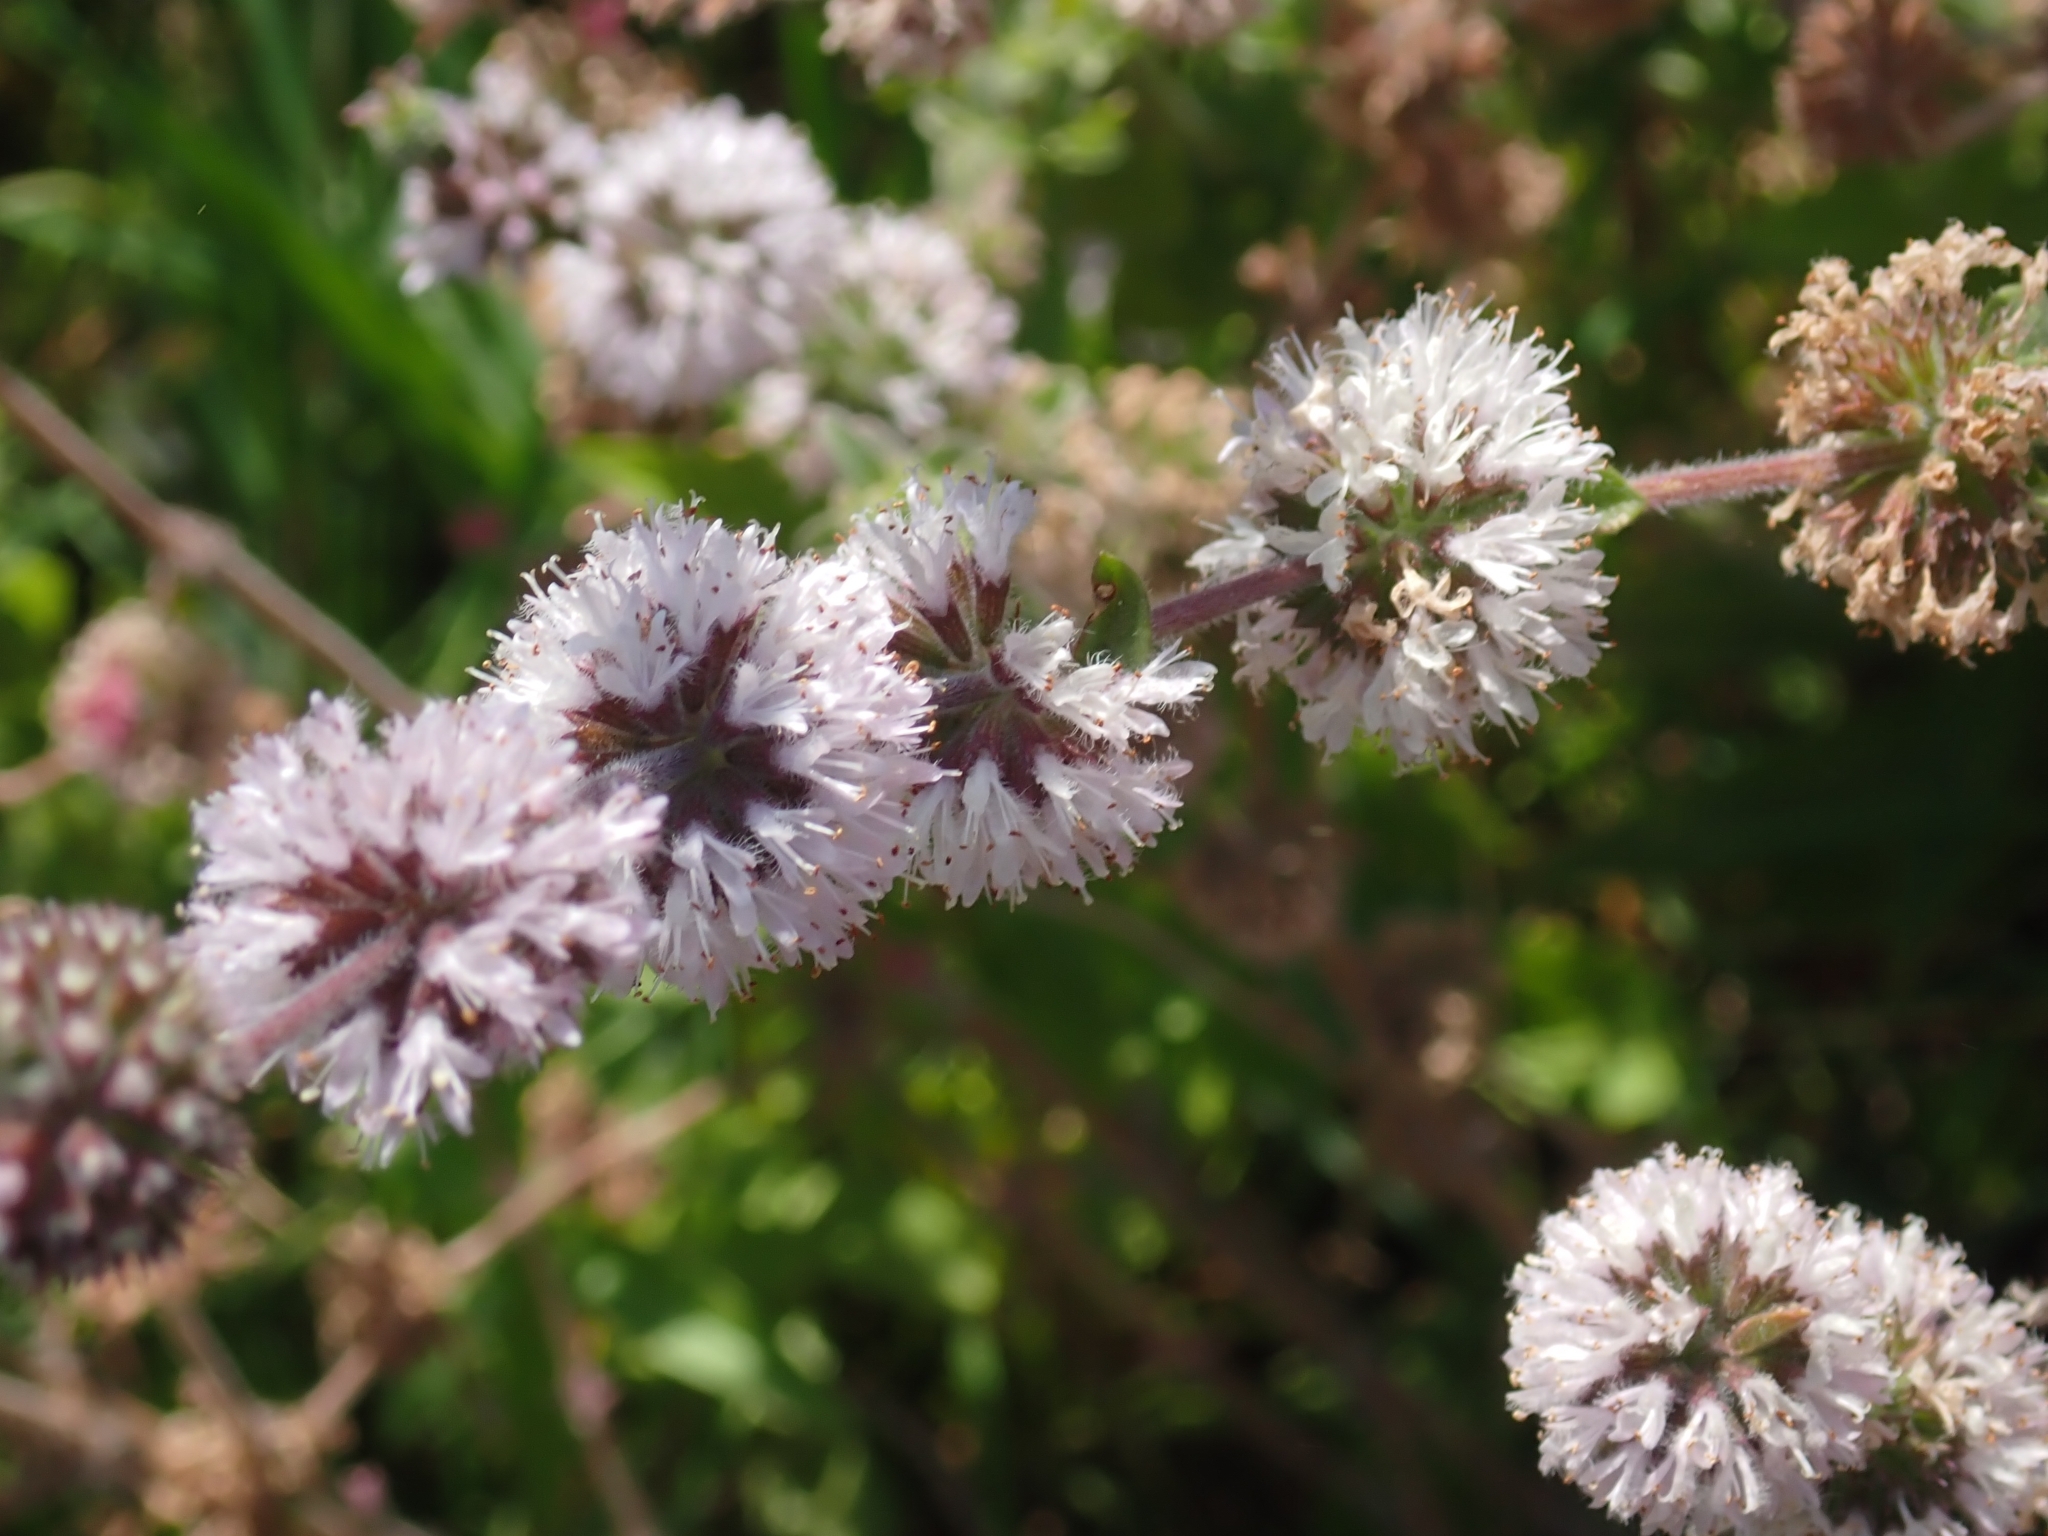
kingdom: Plantae
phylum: Tracheophyta
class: Magnoliopsida
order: Lamiales
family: Lamiaceae
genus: Mentha
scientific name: Mentha pulegium
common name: Pennyroyal
